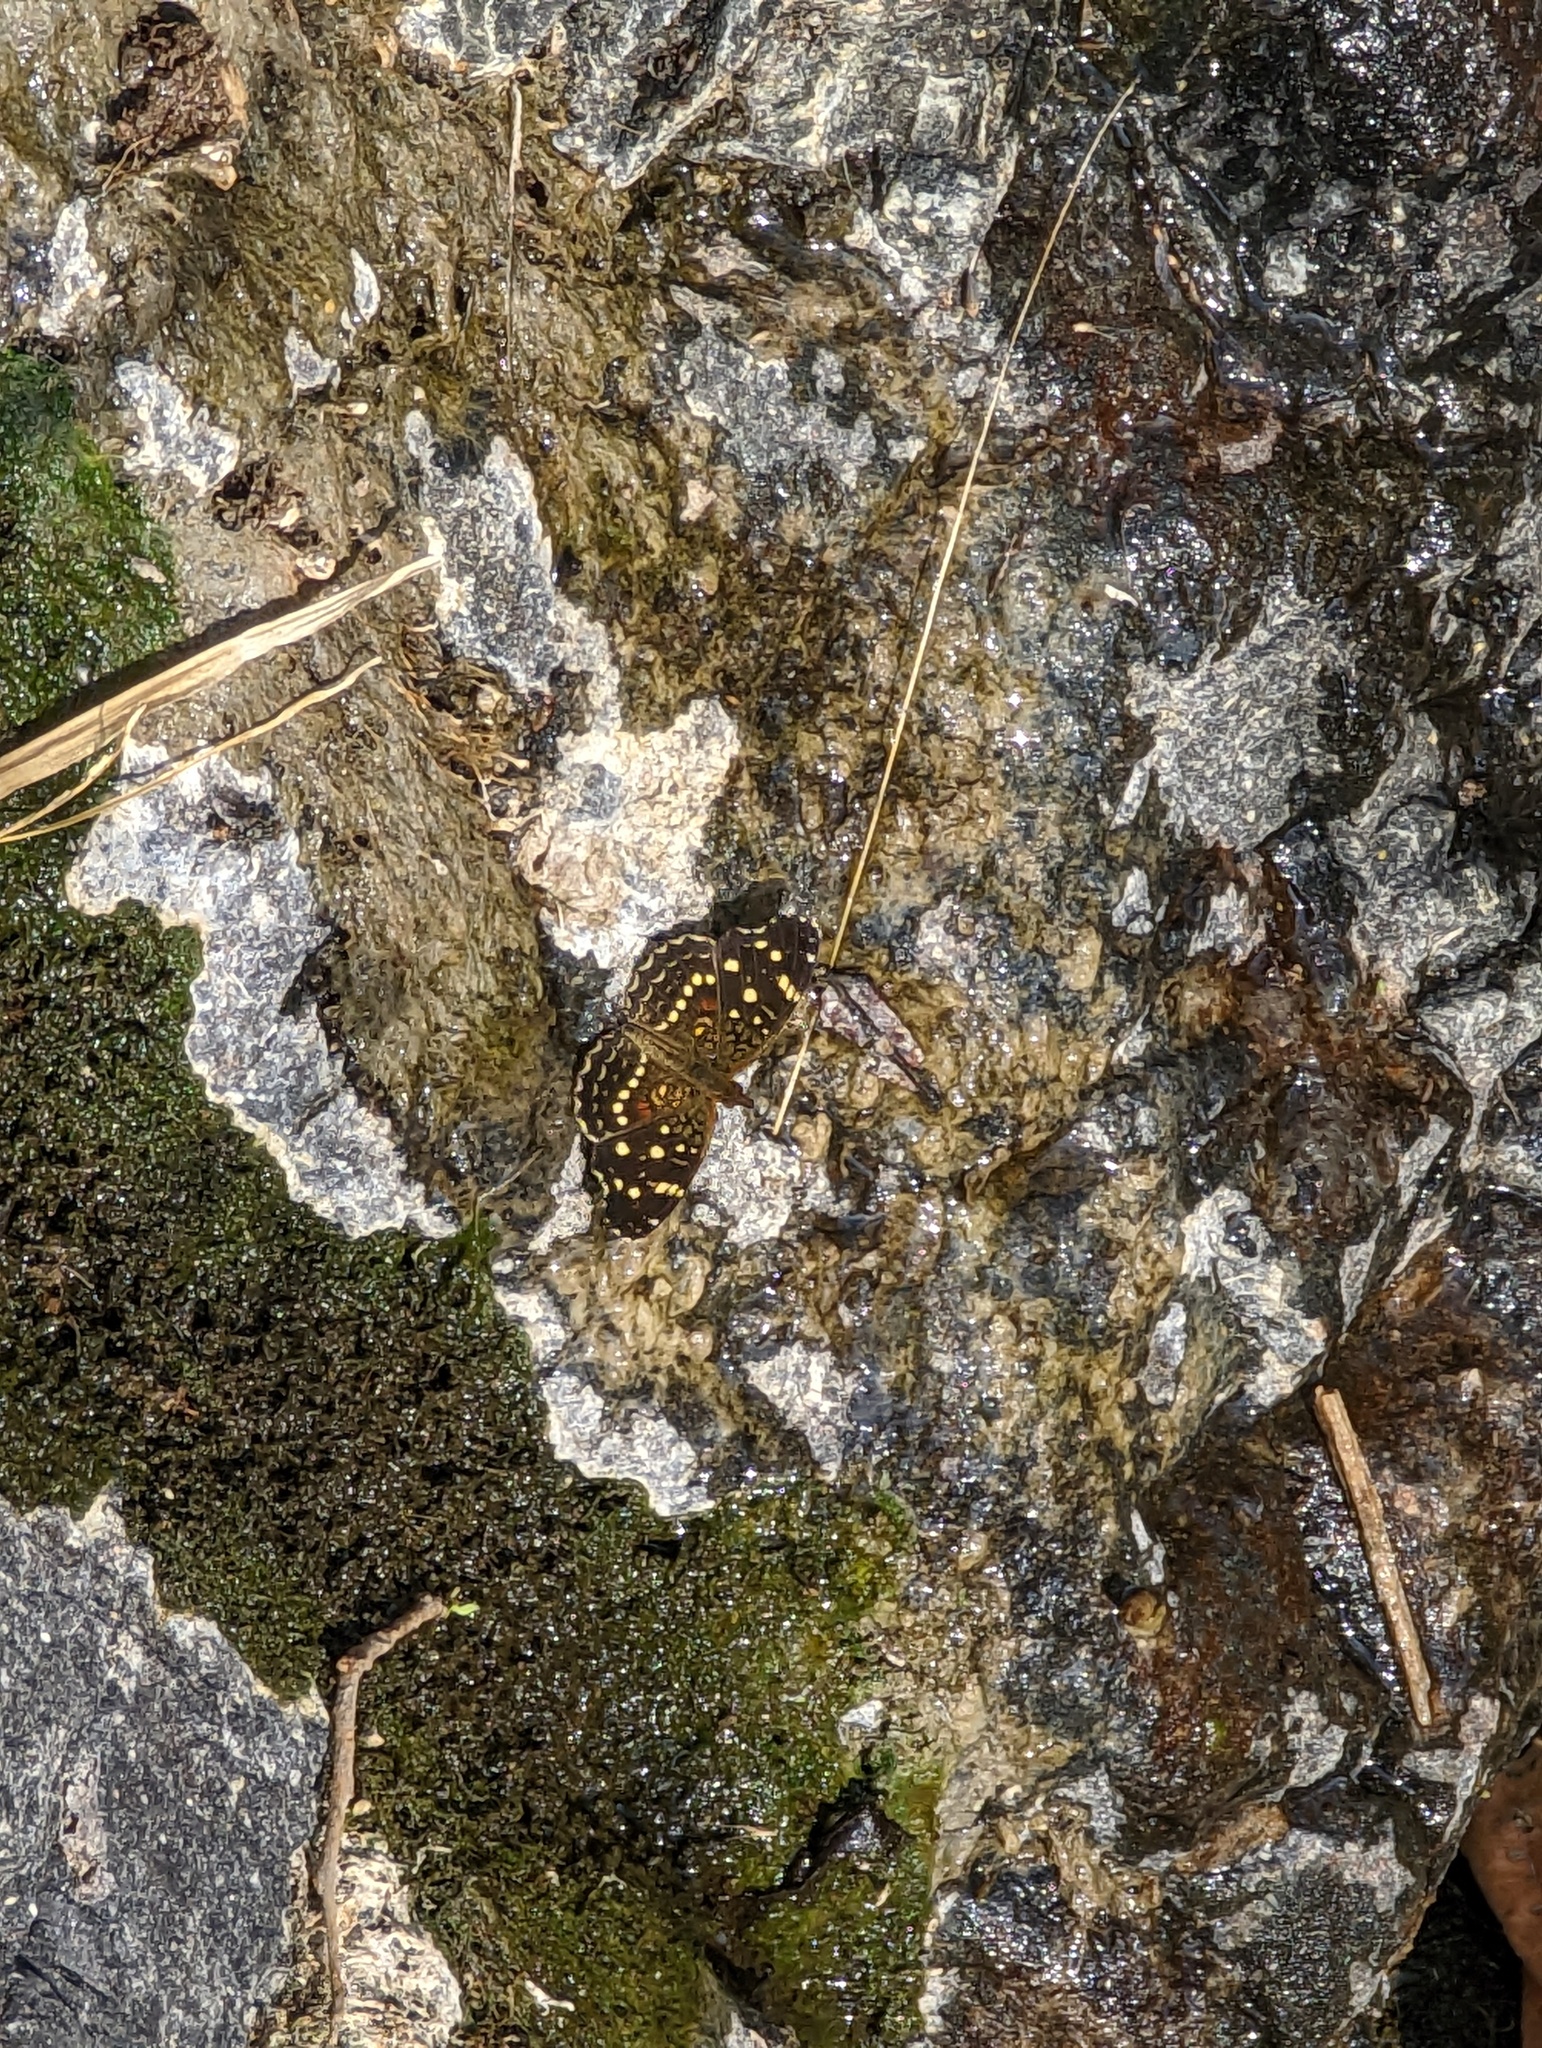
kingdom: Animalia
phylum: Arthropoda
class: Insecta
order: Lepidoptera
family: Nymphalidae
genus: Anthanassa
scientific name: Anthanassa texana
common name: Texan crescent
